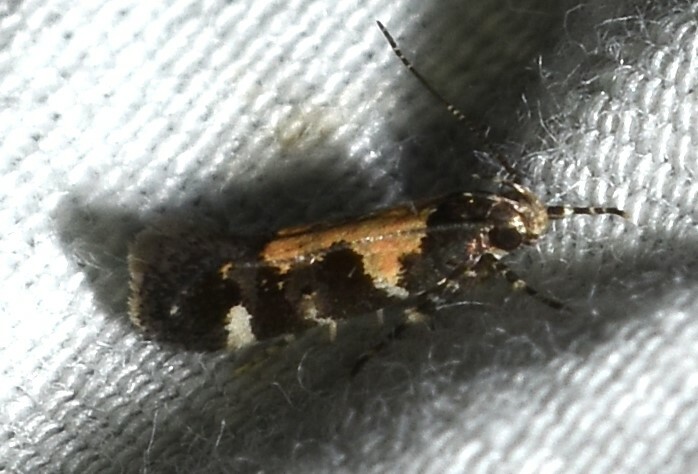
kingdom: Animalia
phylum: Arthropoda
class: Insecta
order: Lepidoptera
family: Gelechiidae
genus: Stegasta
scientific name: Stegasta bosqueella
